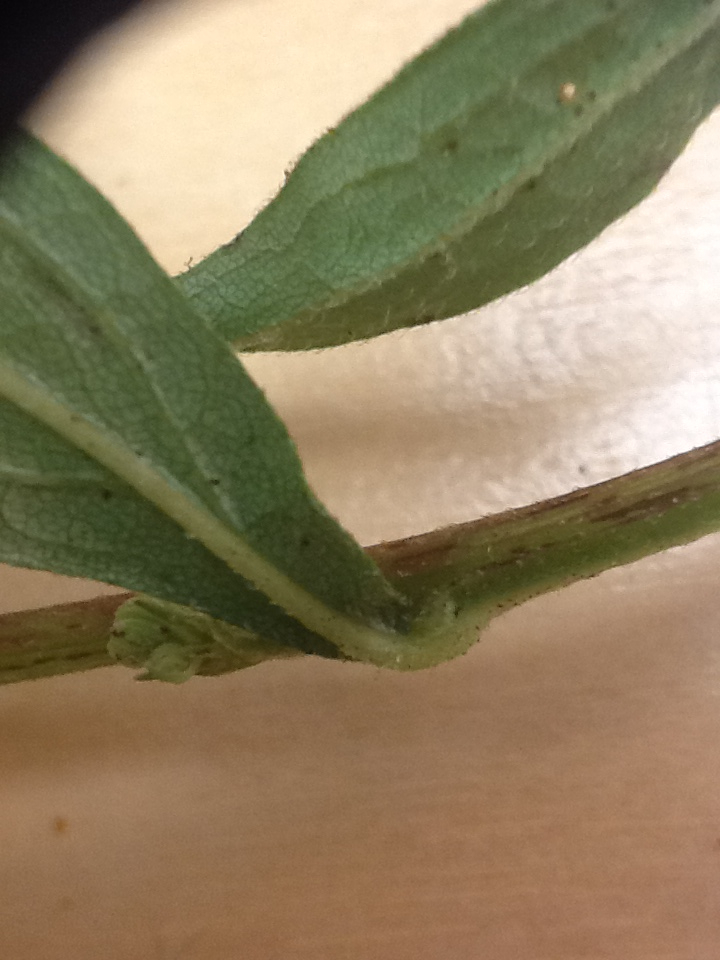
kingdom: Plantae
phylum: Tracheophyta
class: Magnoliopsida
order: Asterales
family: Asteraceae
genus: Symphyotrichum
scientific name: Symphyotrichum lanceolatum
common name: Panicled aster
